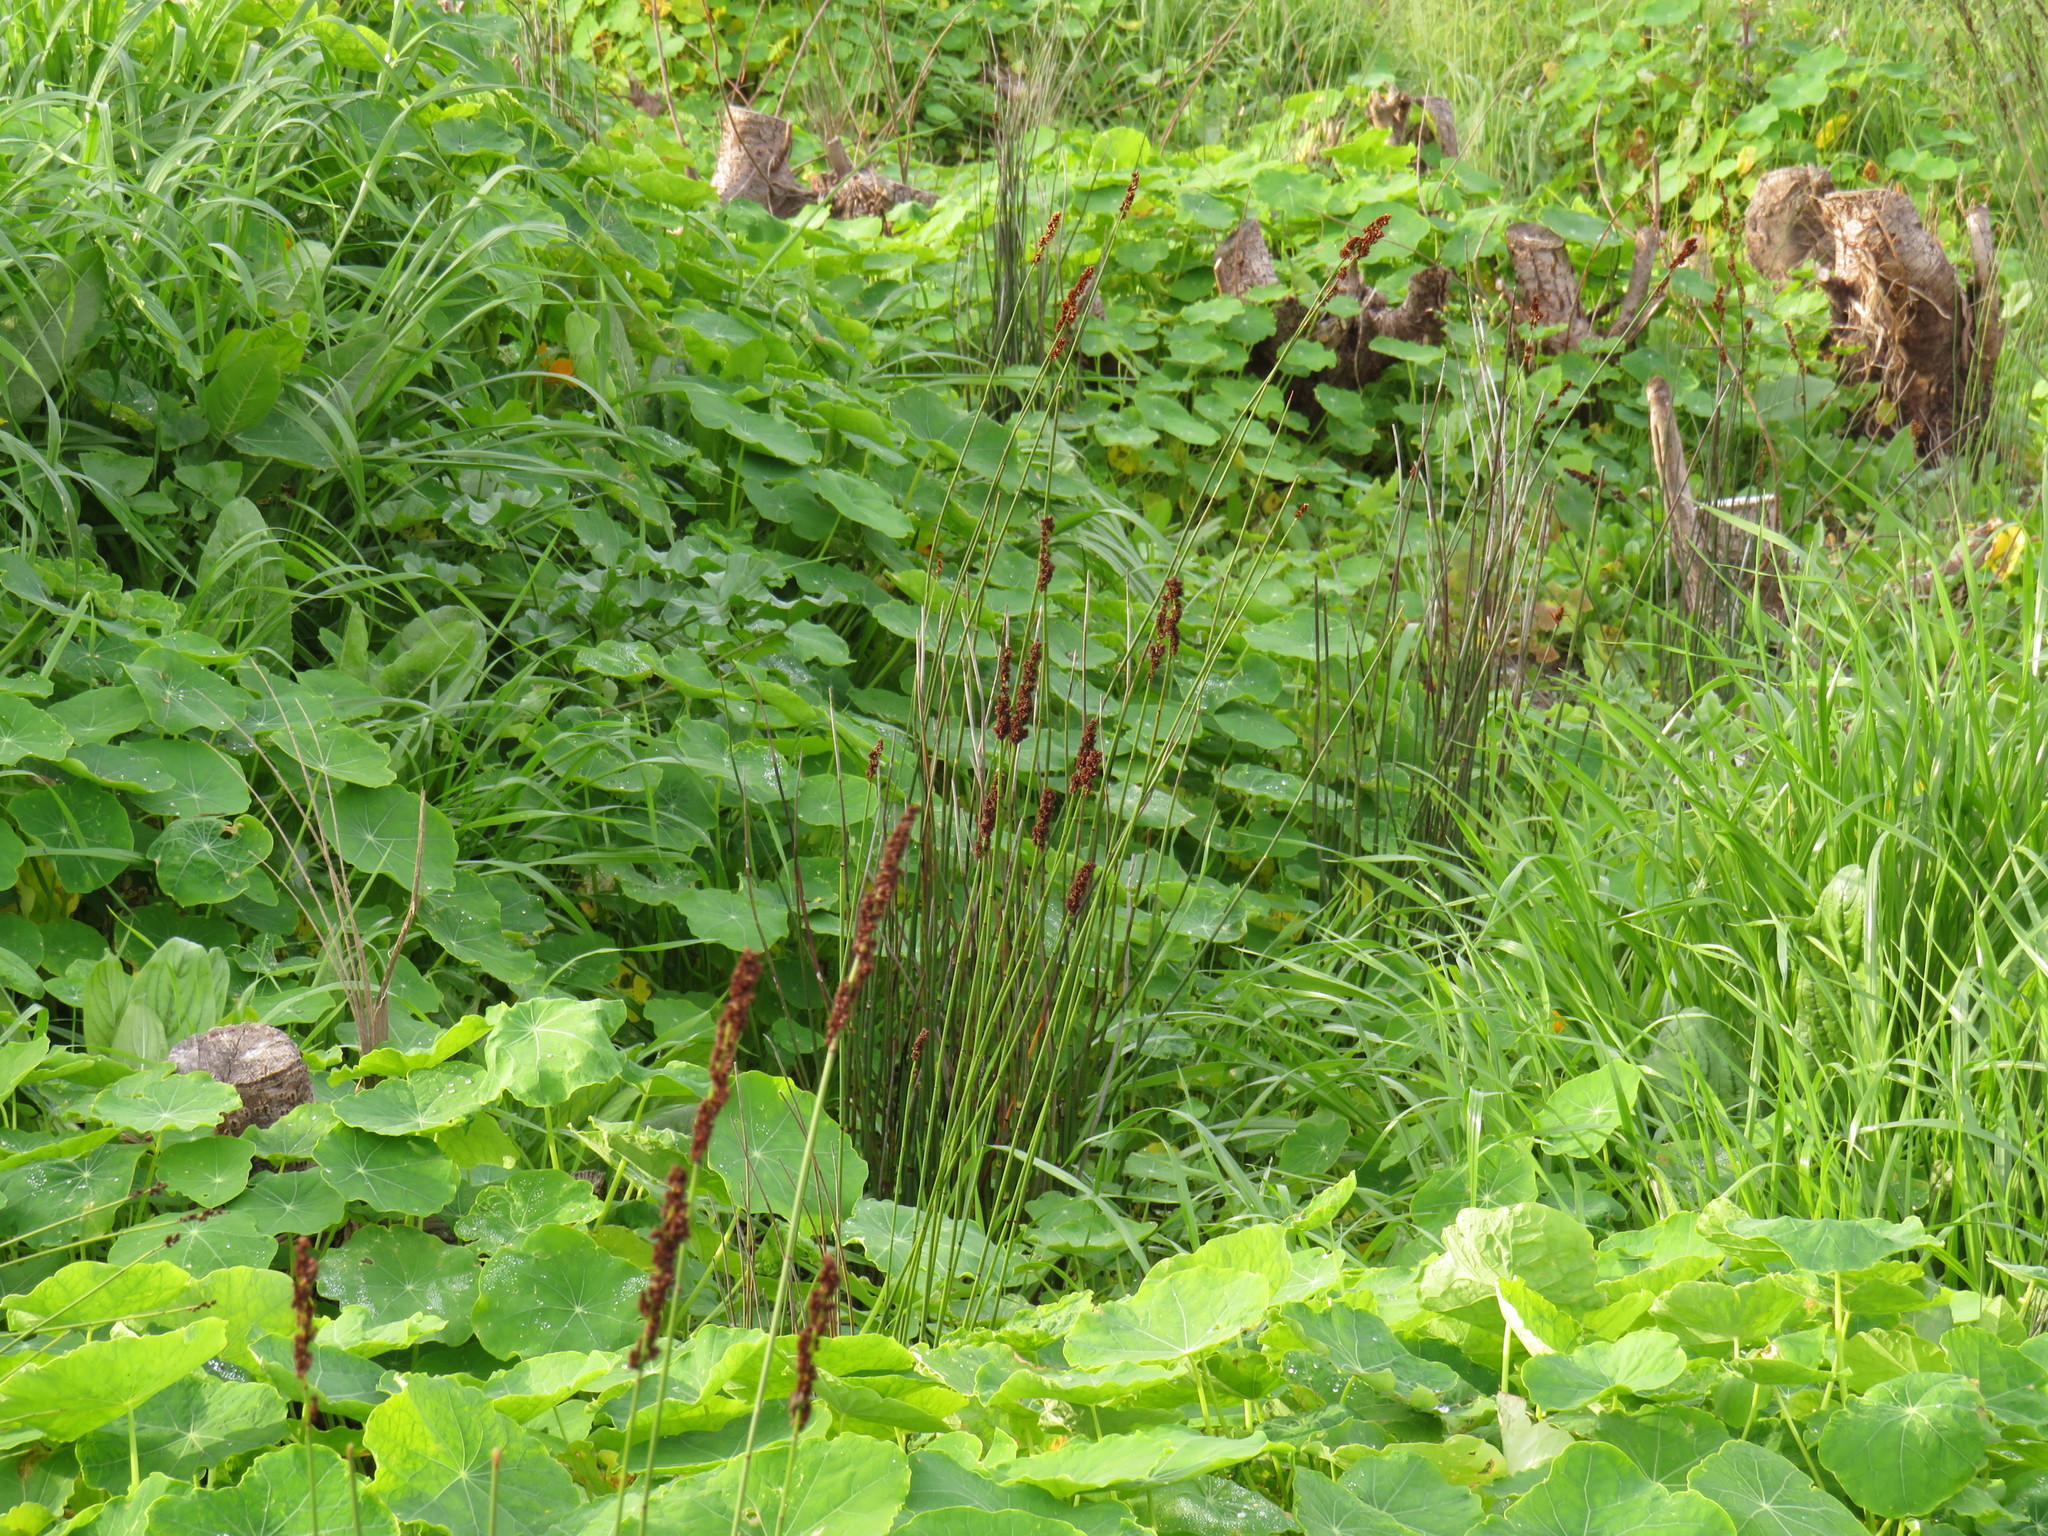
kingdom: Plantae
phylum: Tracheophyta
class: Liliopsida
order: Poales
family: Restionaceae
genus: Elegia
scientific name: Elegia tectorum
